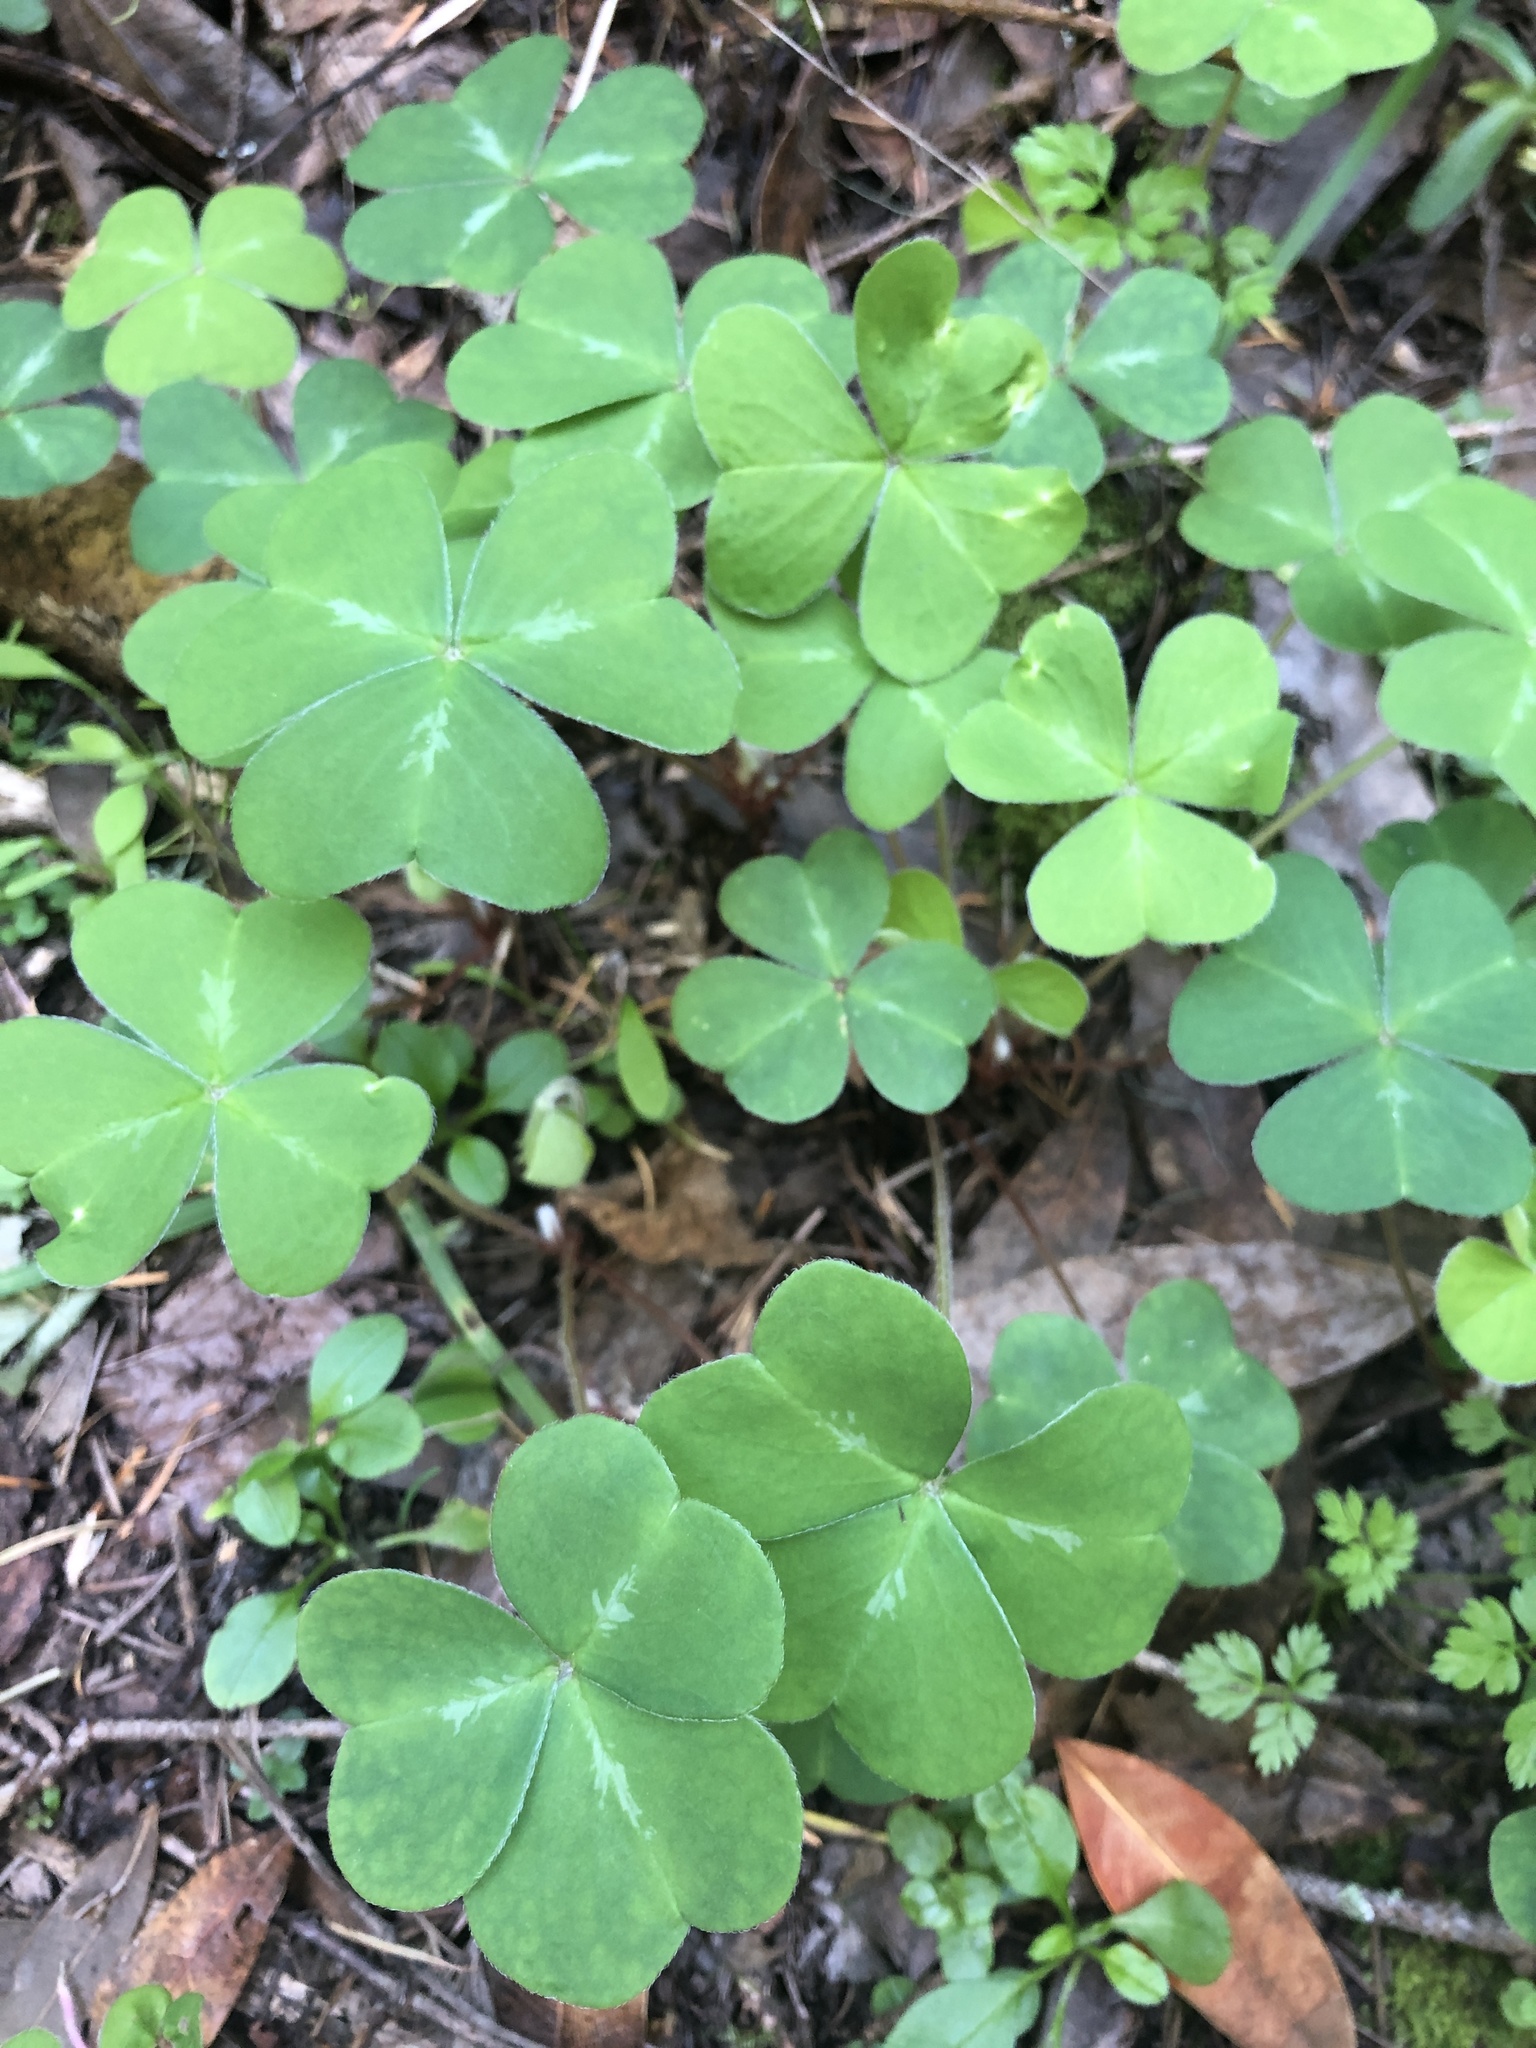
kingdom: Plantae
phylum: Tracheophyta
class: Magnoliopsida
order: Oxalidales
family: Oxalidaceae
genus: Oxalis
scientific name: Oxalis oregana
